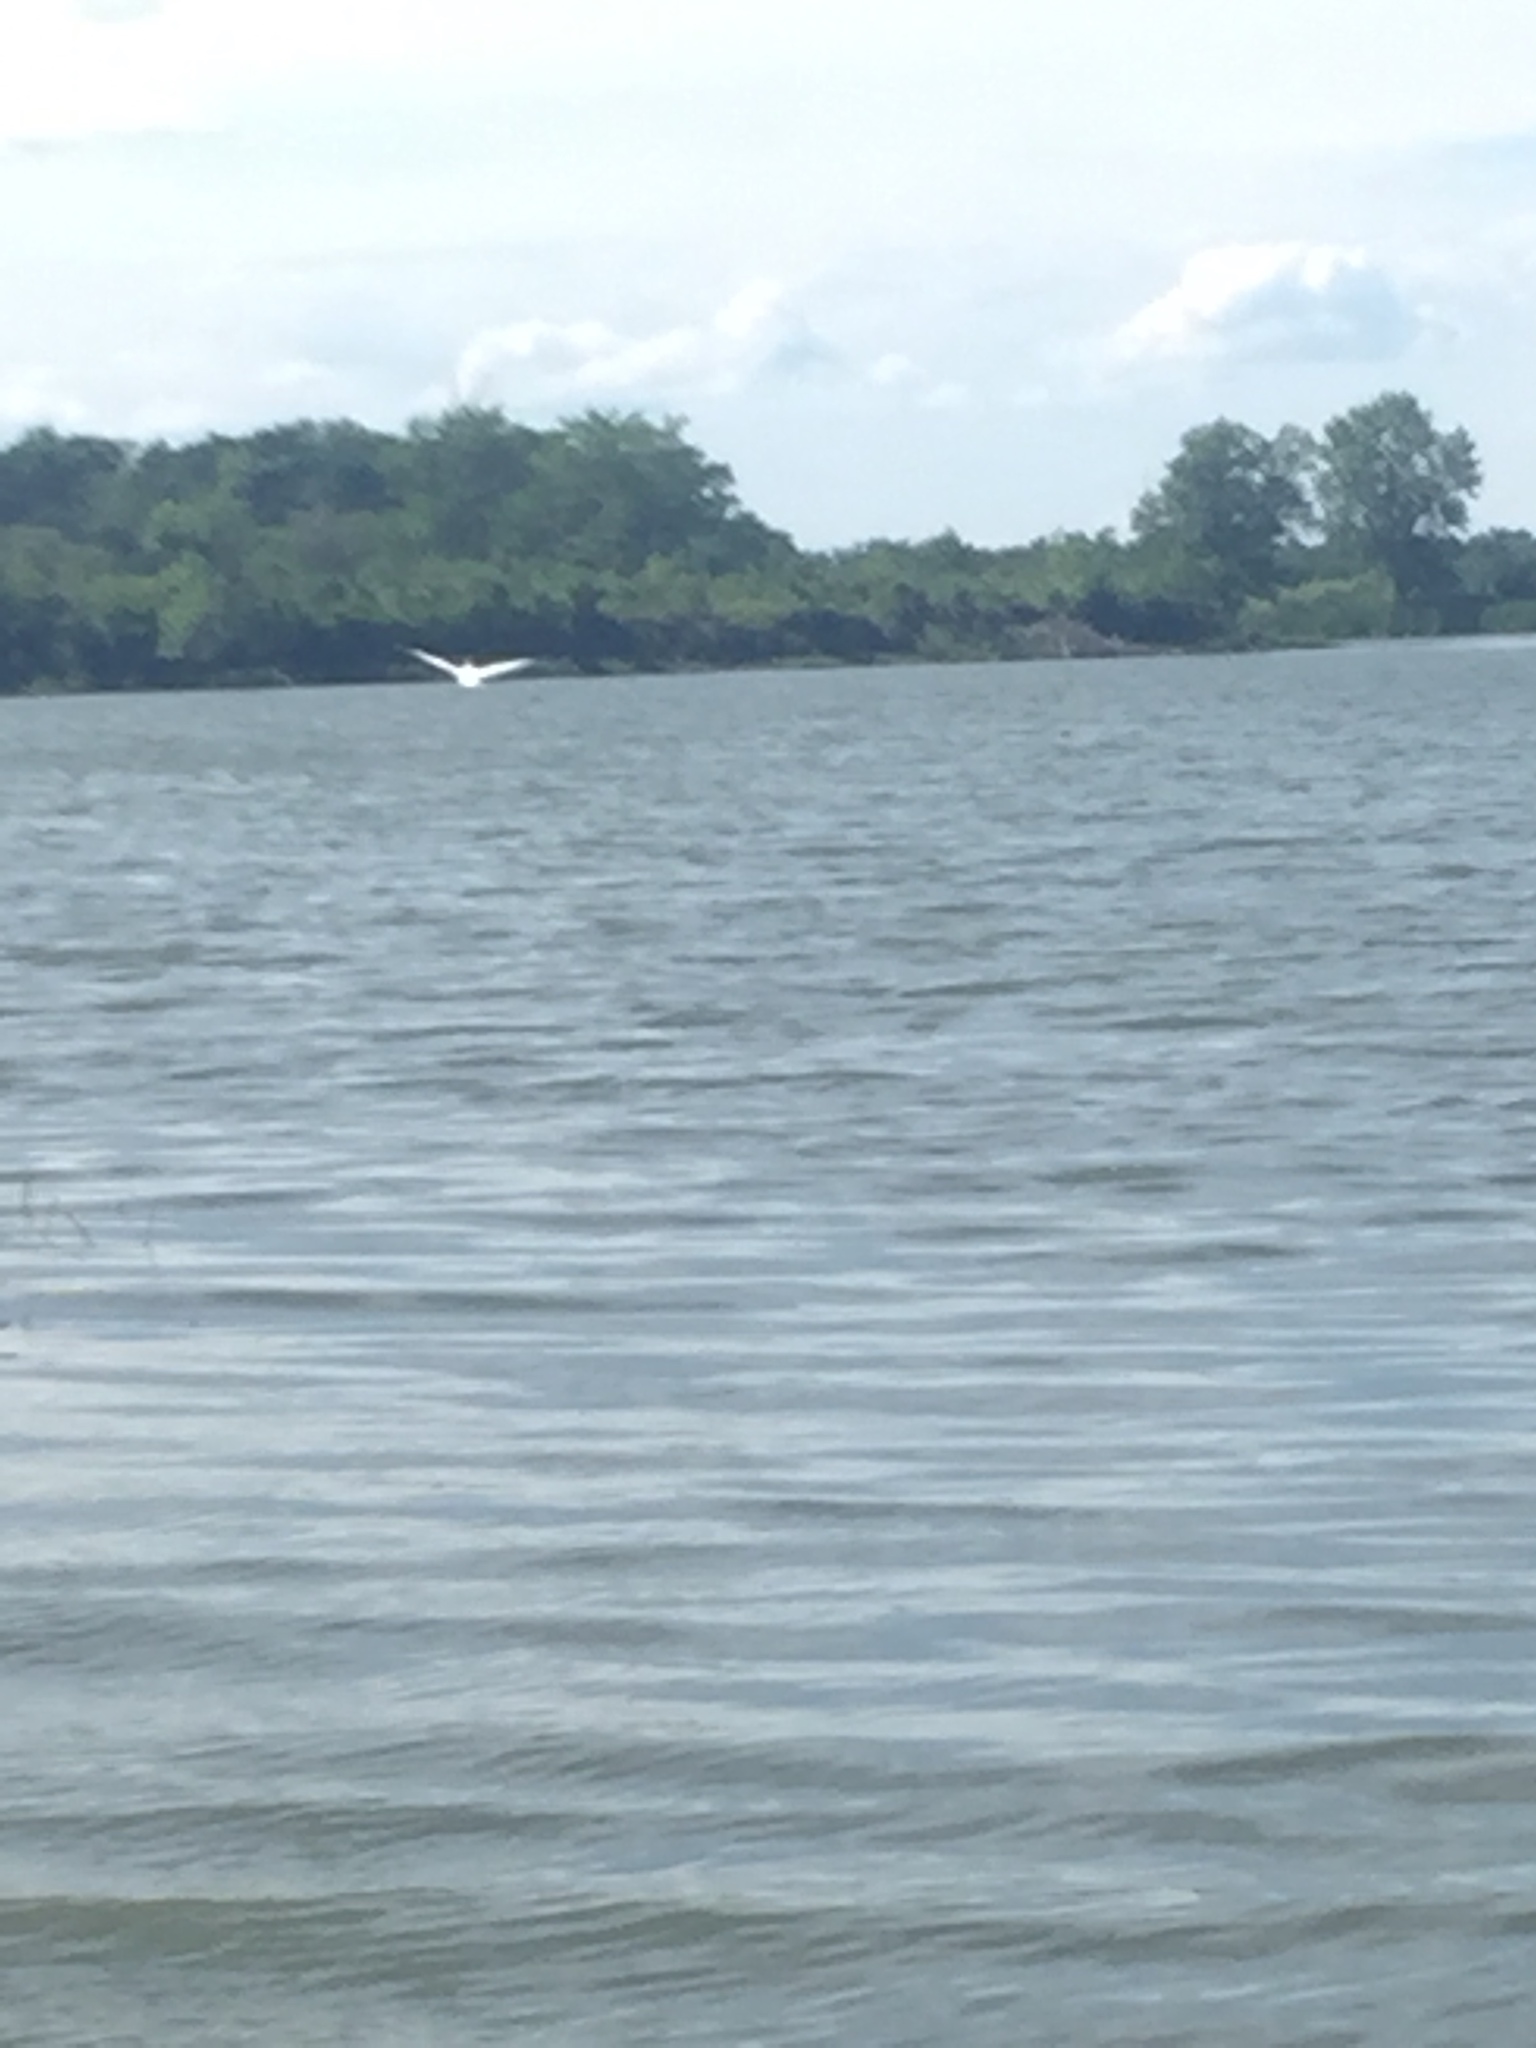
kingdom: Animalia
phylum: Chordata
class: Aves
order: Pelecaniformes
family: Pelecanidae
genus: Pelecanus
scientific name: Pelecanus erythrorhynchos
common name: American white pelican
